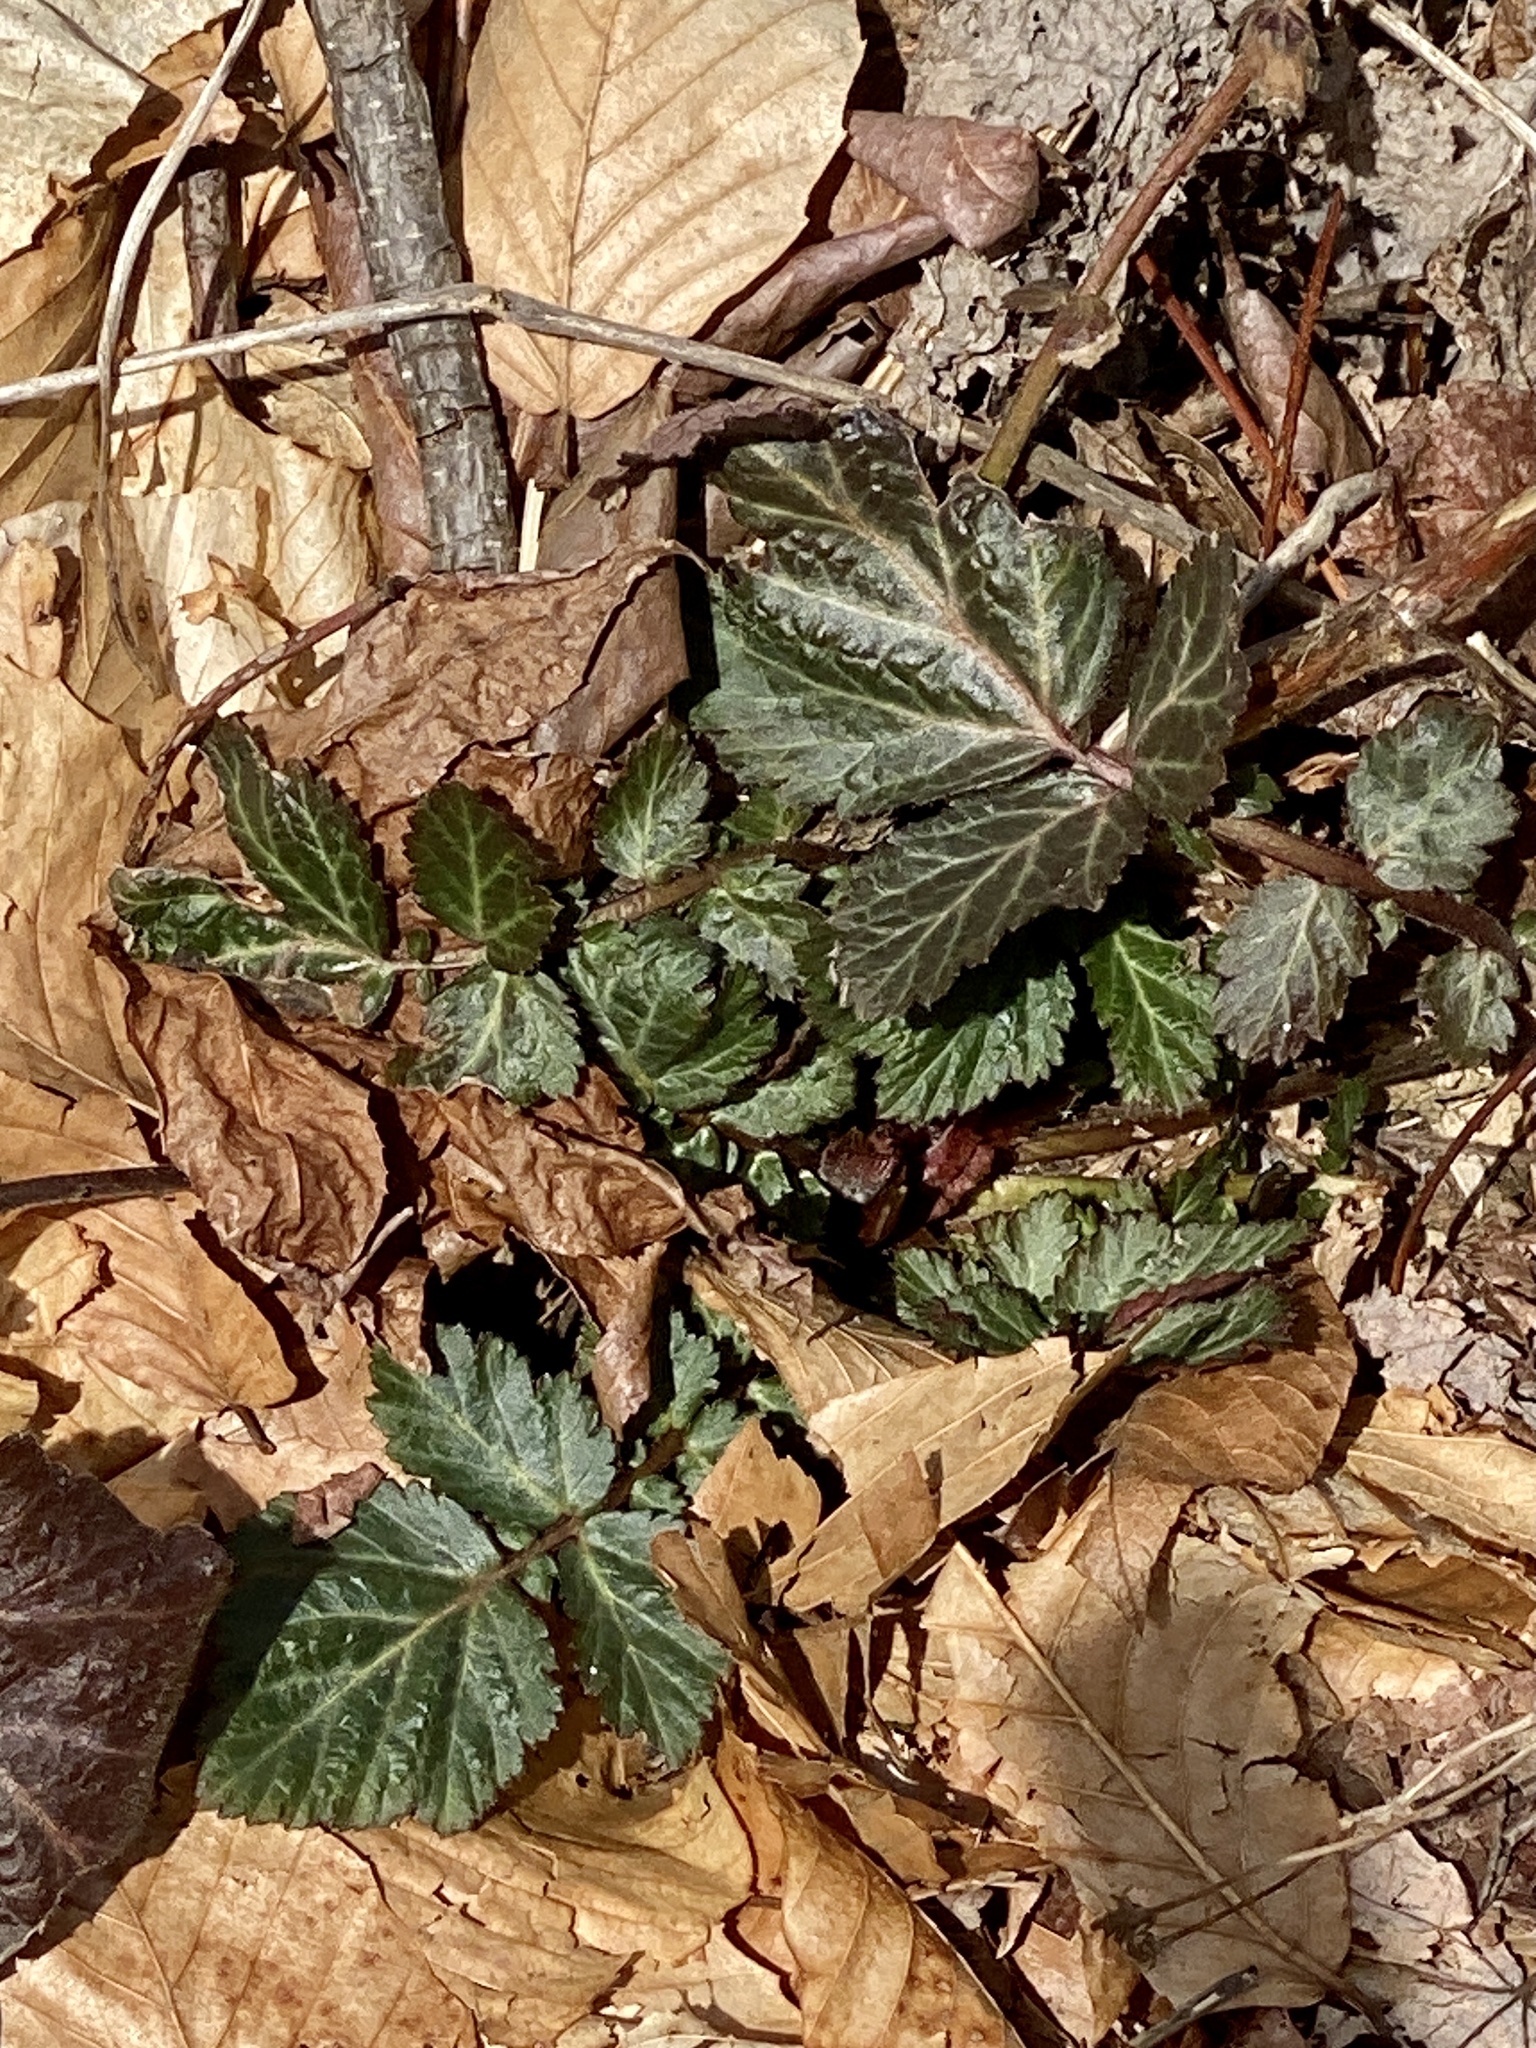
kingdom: Plantae
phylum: Tracheophyta
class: Magnoliopsida
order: Rosales
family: Rosaceae
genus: Geum
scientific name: Geum canadense
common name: White avens
